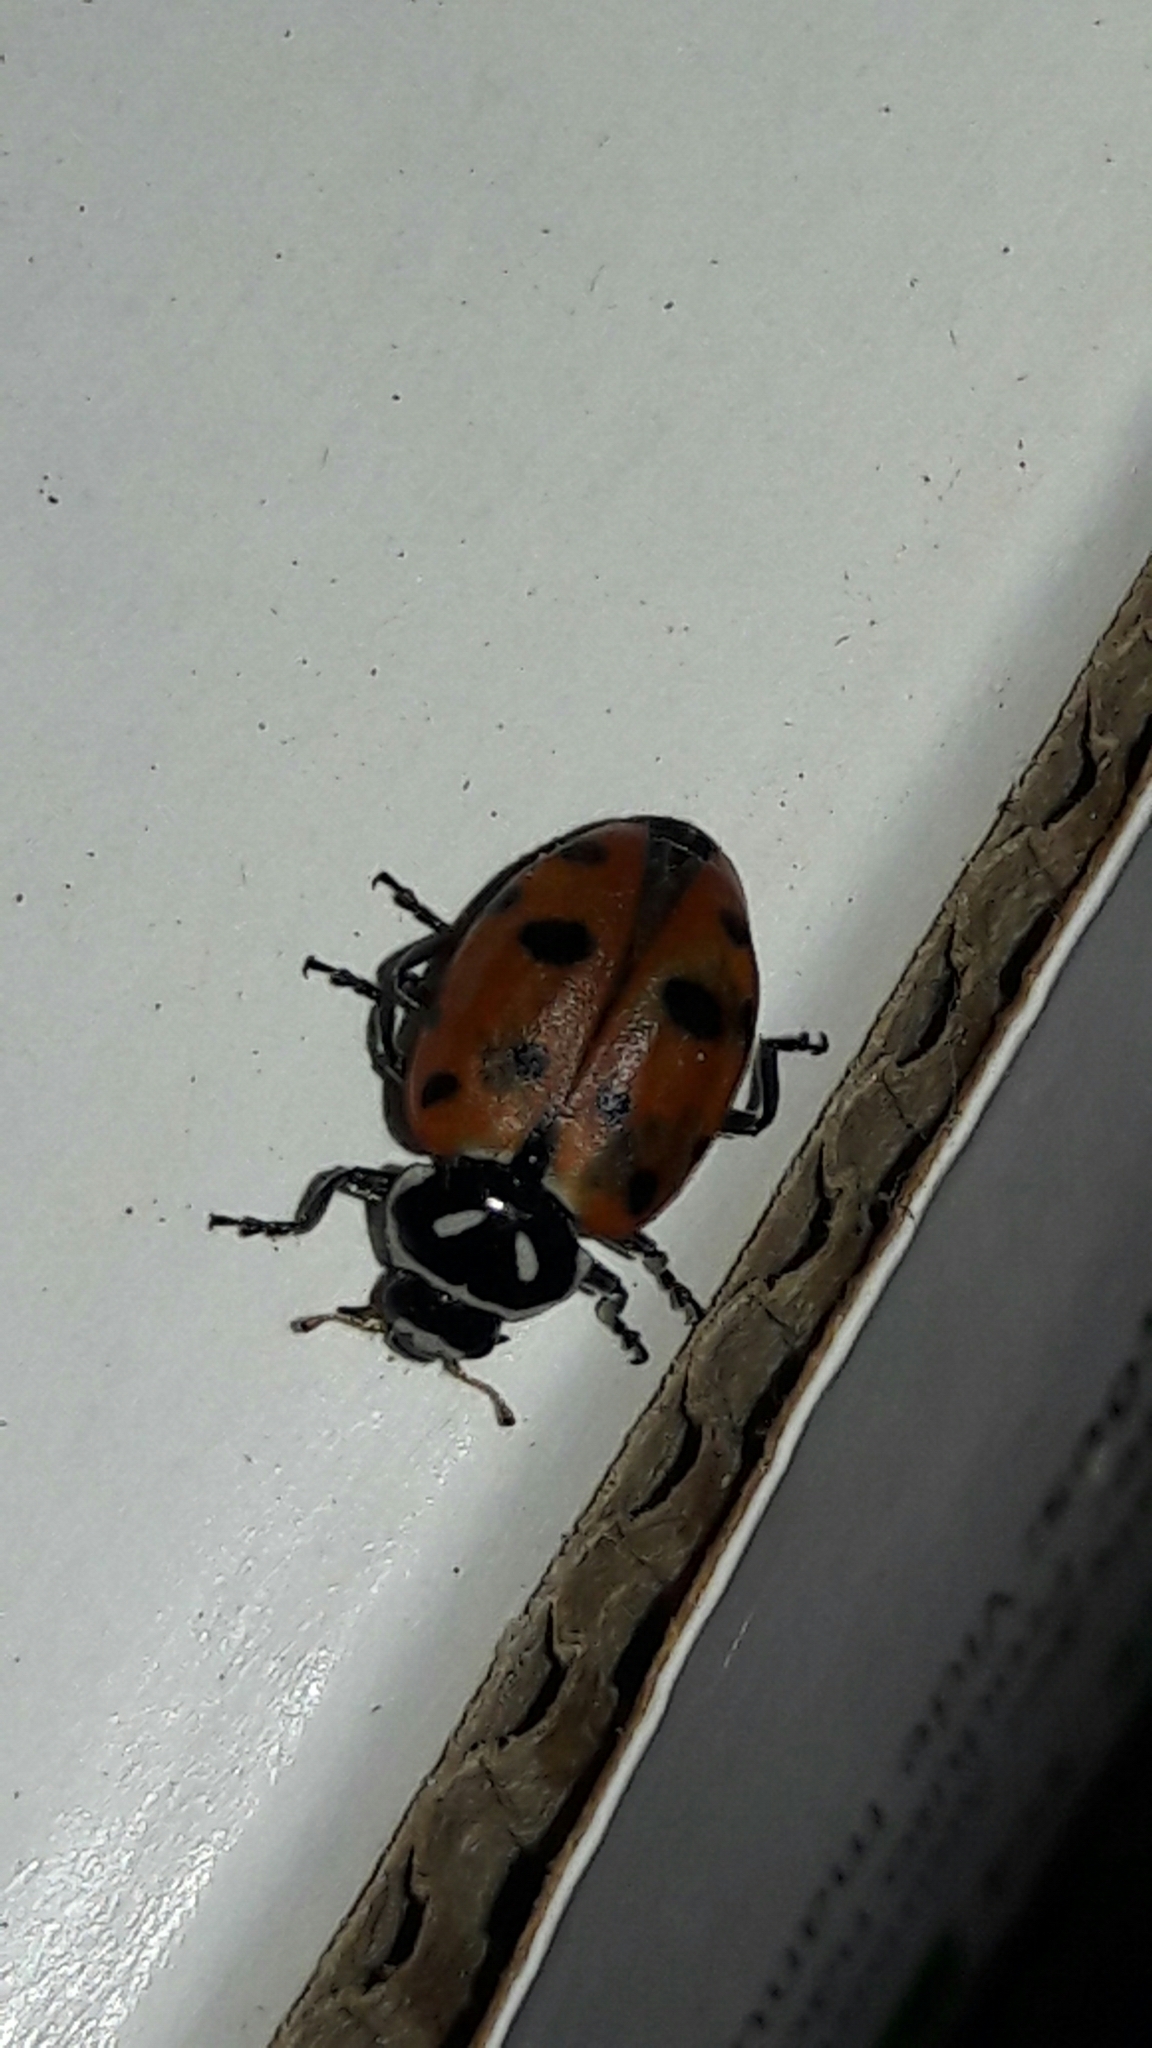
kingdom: Animalia
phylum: Arthropoda
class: Insecta
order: Coleoptera
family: Coccinellidae
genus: Hippodamia
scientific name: Hippodamia convergens
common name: Convergent lady beetle
